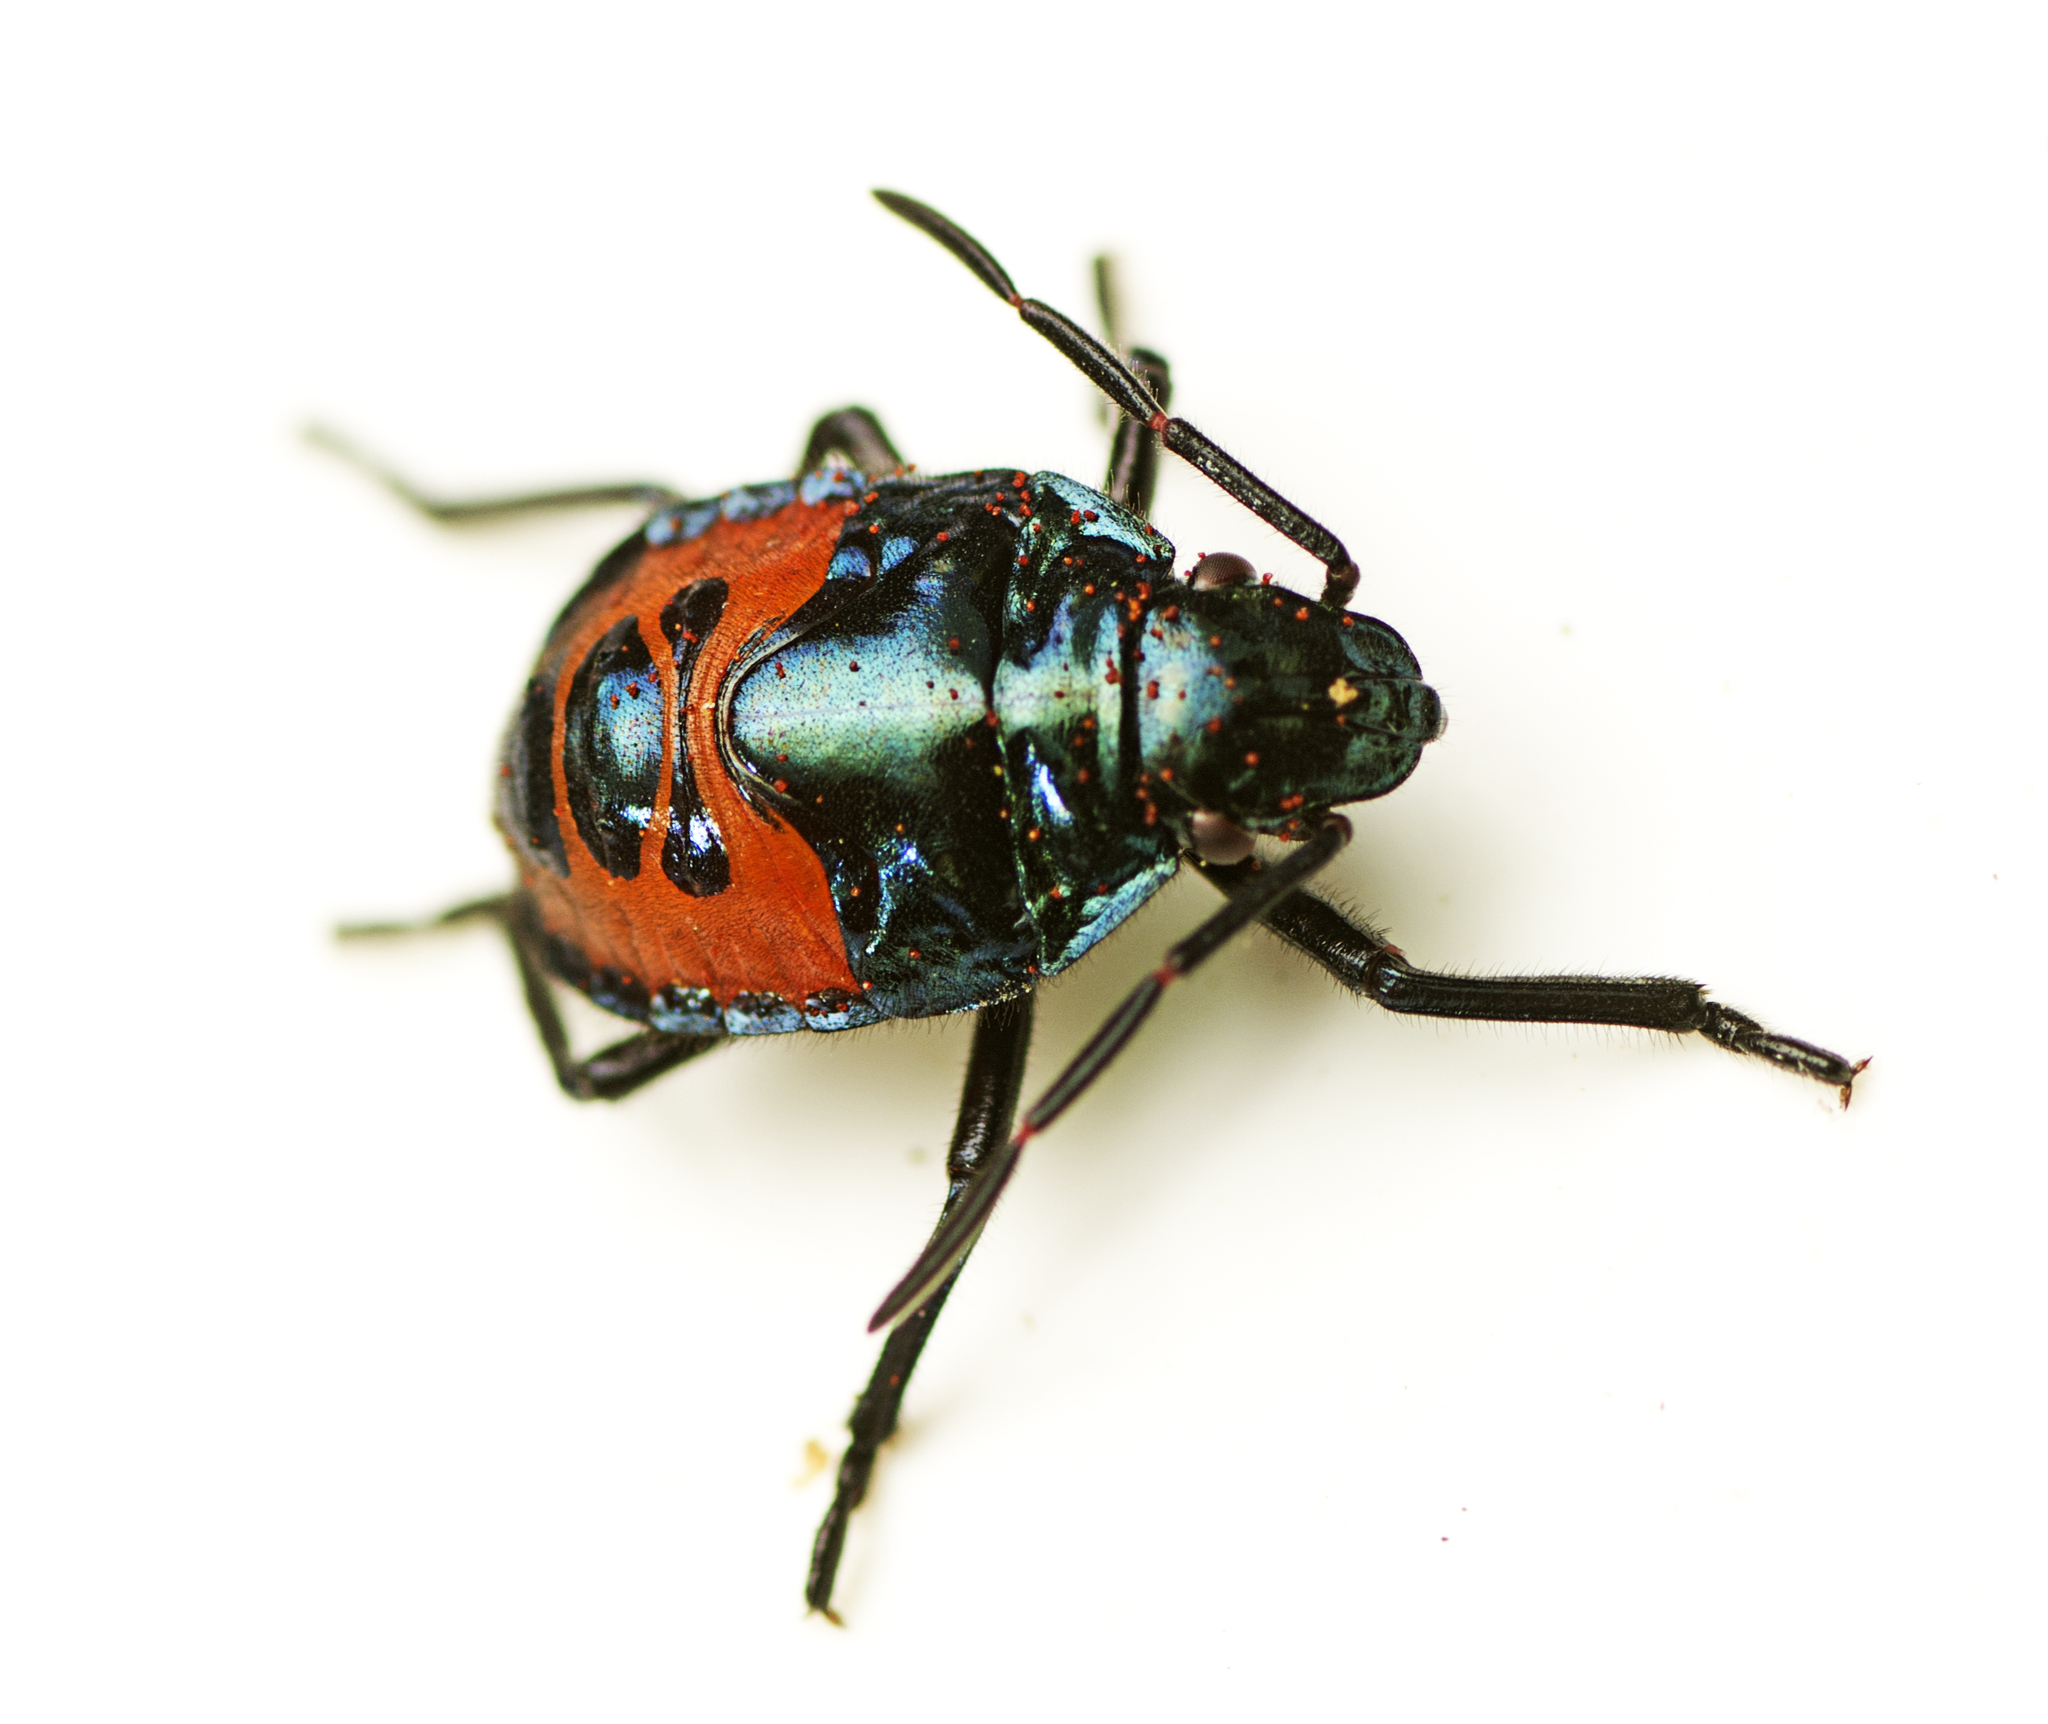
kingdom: Animalia
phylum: Arthropoda
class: Insecta
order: Hemiptera
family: Scutelleridae
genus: Tectocoris
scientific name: Tectocoris diophthalmus
